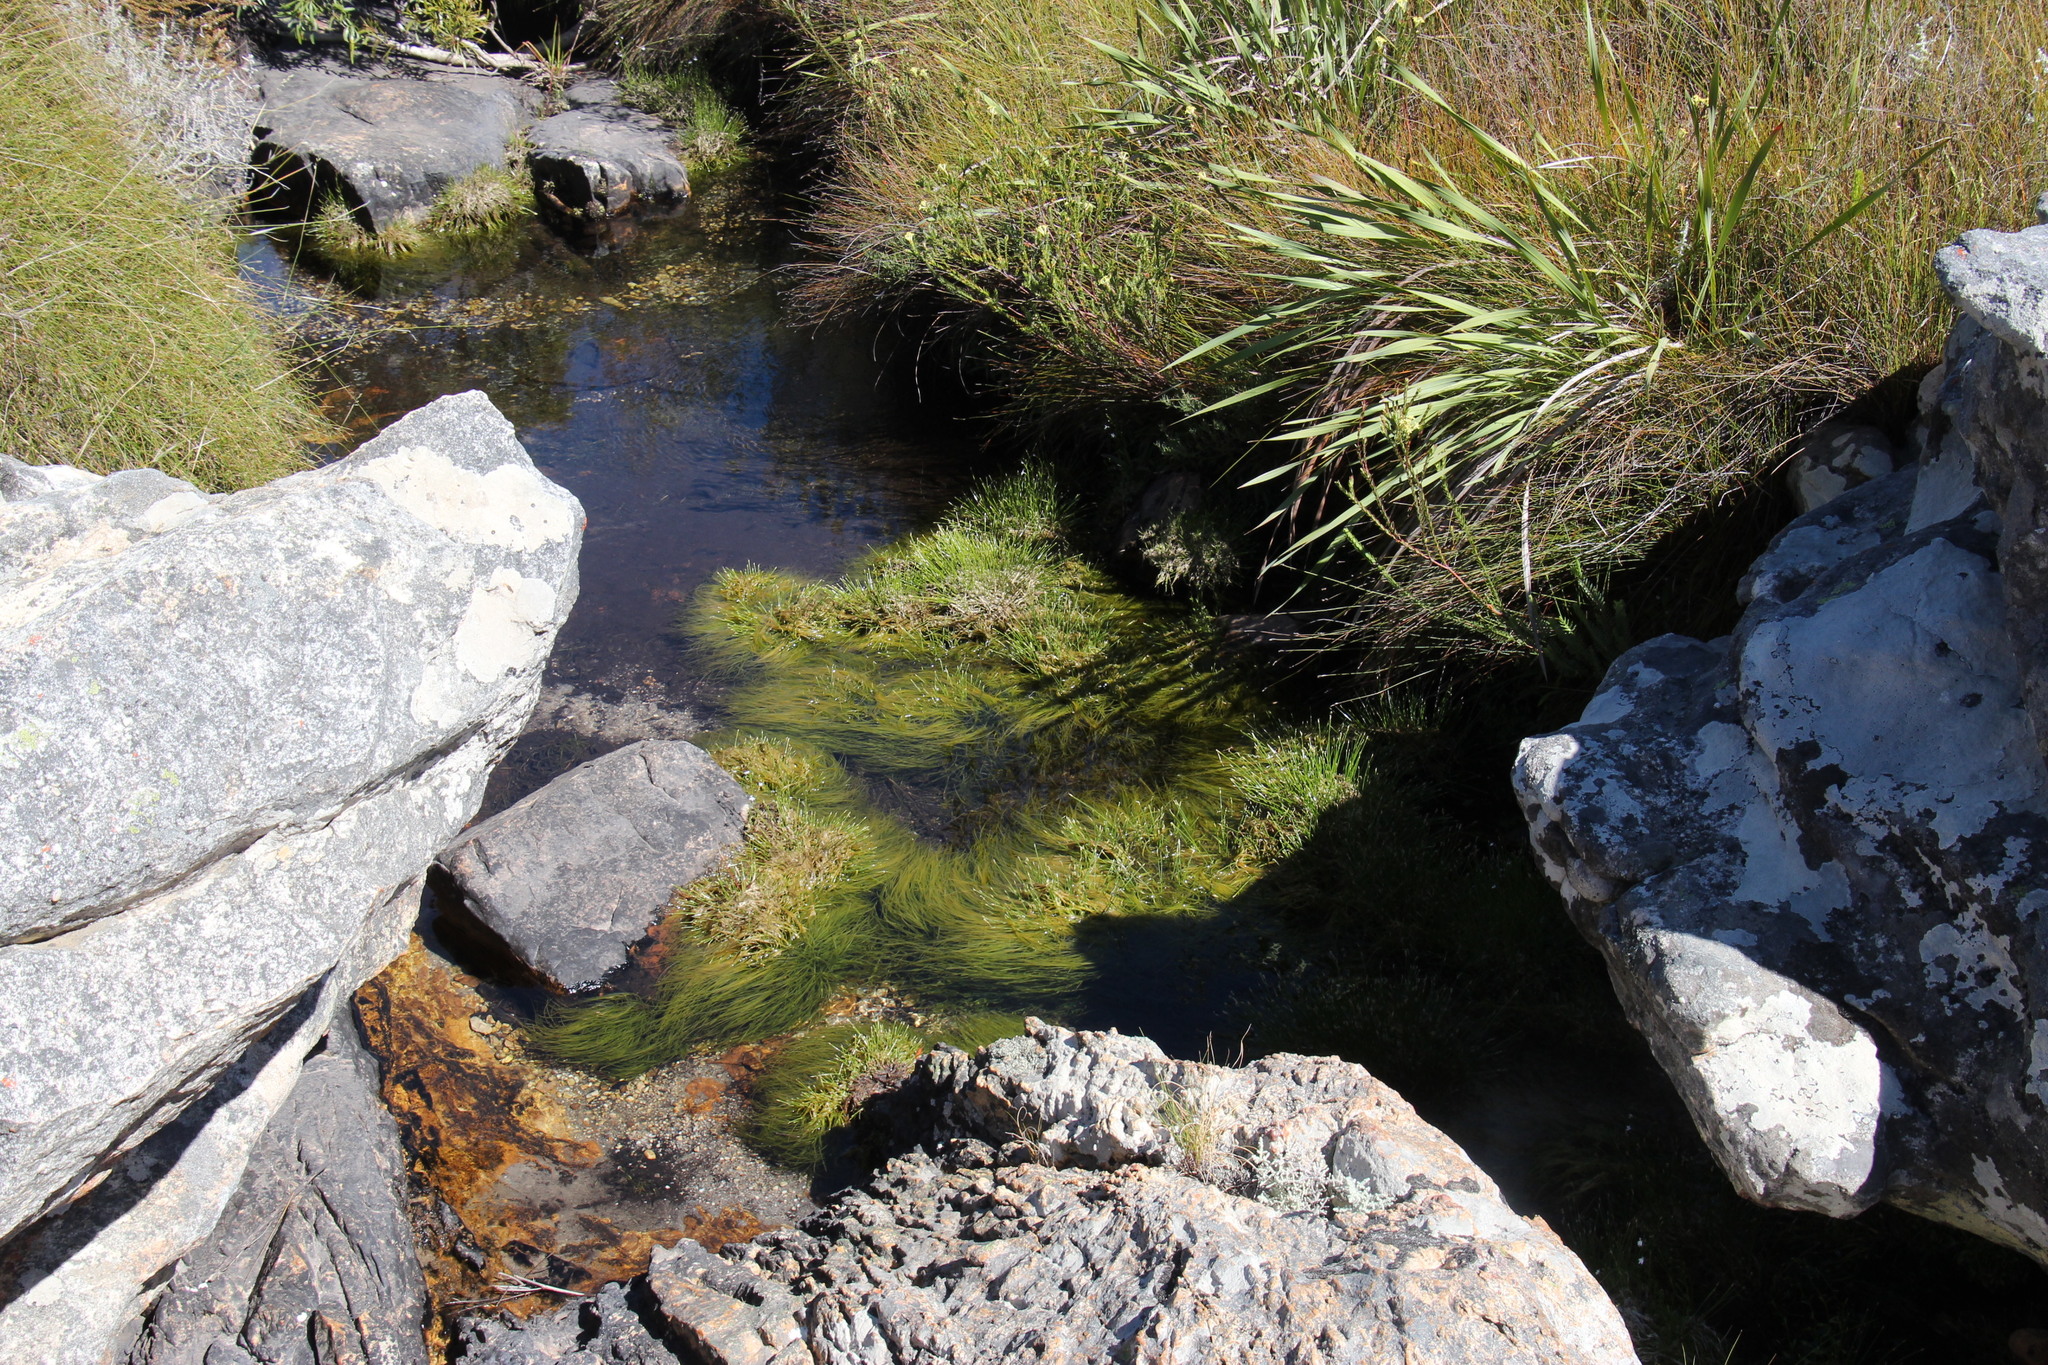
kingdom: Plantae
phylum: Tracheophyta
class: Liliopsida
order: Poales
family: Cyperaceae
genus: Isolepis
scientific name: Isolepis digitata
